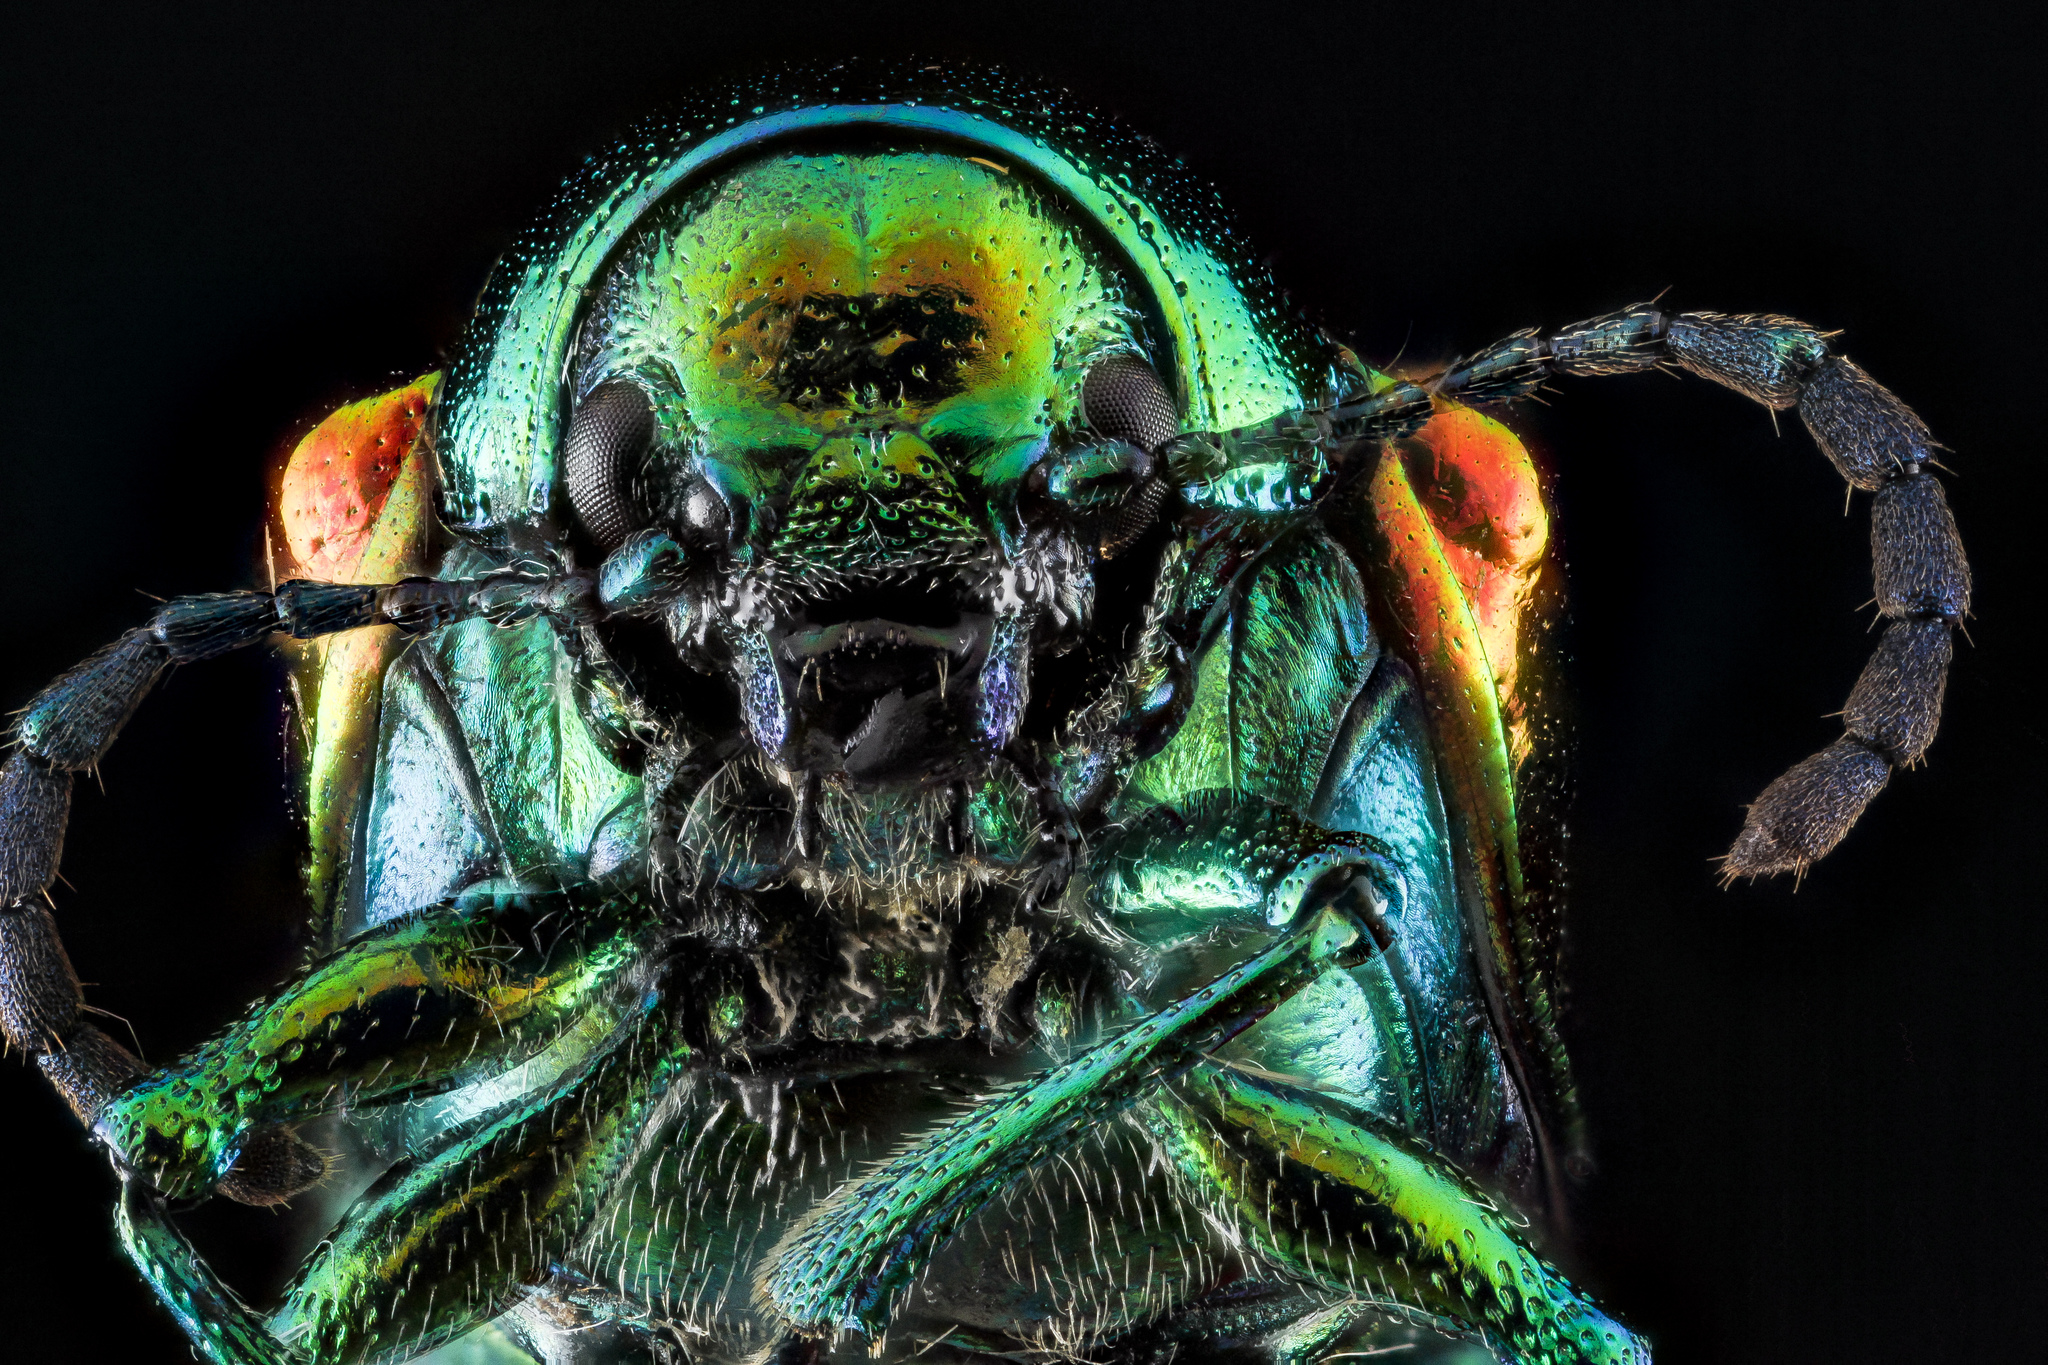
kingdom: Animalia
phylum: Arthropoda
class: Insecta
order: Coleoptera
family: Chrysomelidae
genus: Chrysochus
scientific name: Chrysochus auratus
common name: Dogbane leaf beetle
